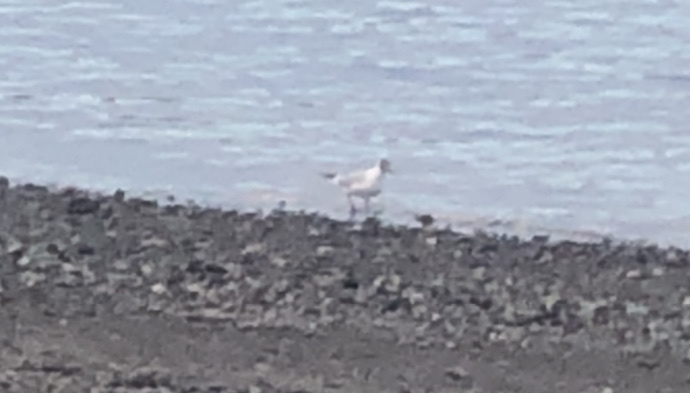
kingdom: Animalia
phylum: Chordata
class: Aves
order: Charadriiformes
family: Laridae
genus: Chroicocephalus
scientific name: Chroicocephalus ridibundus
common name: Black-headed gull
